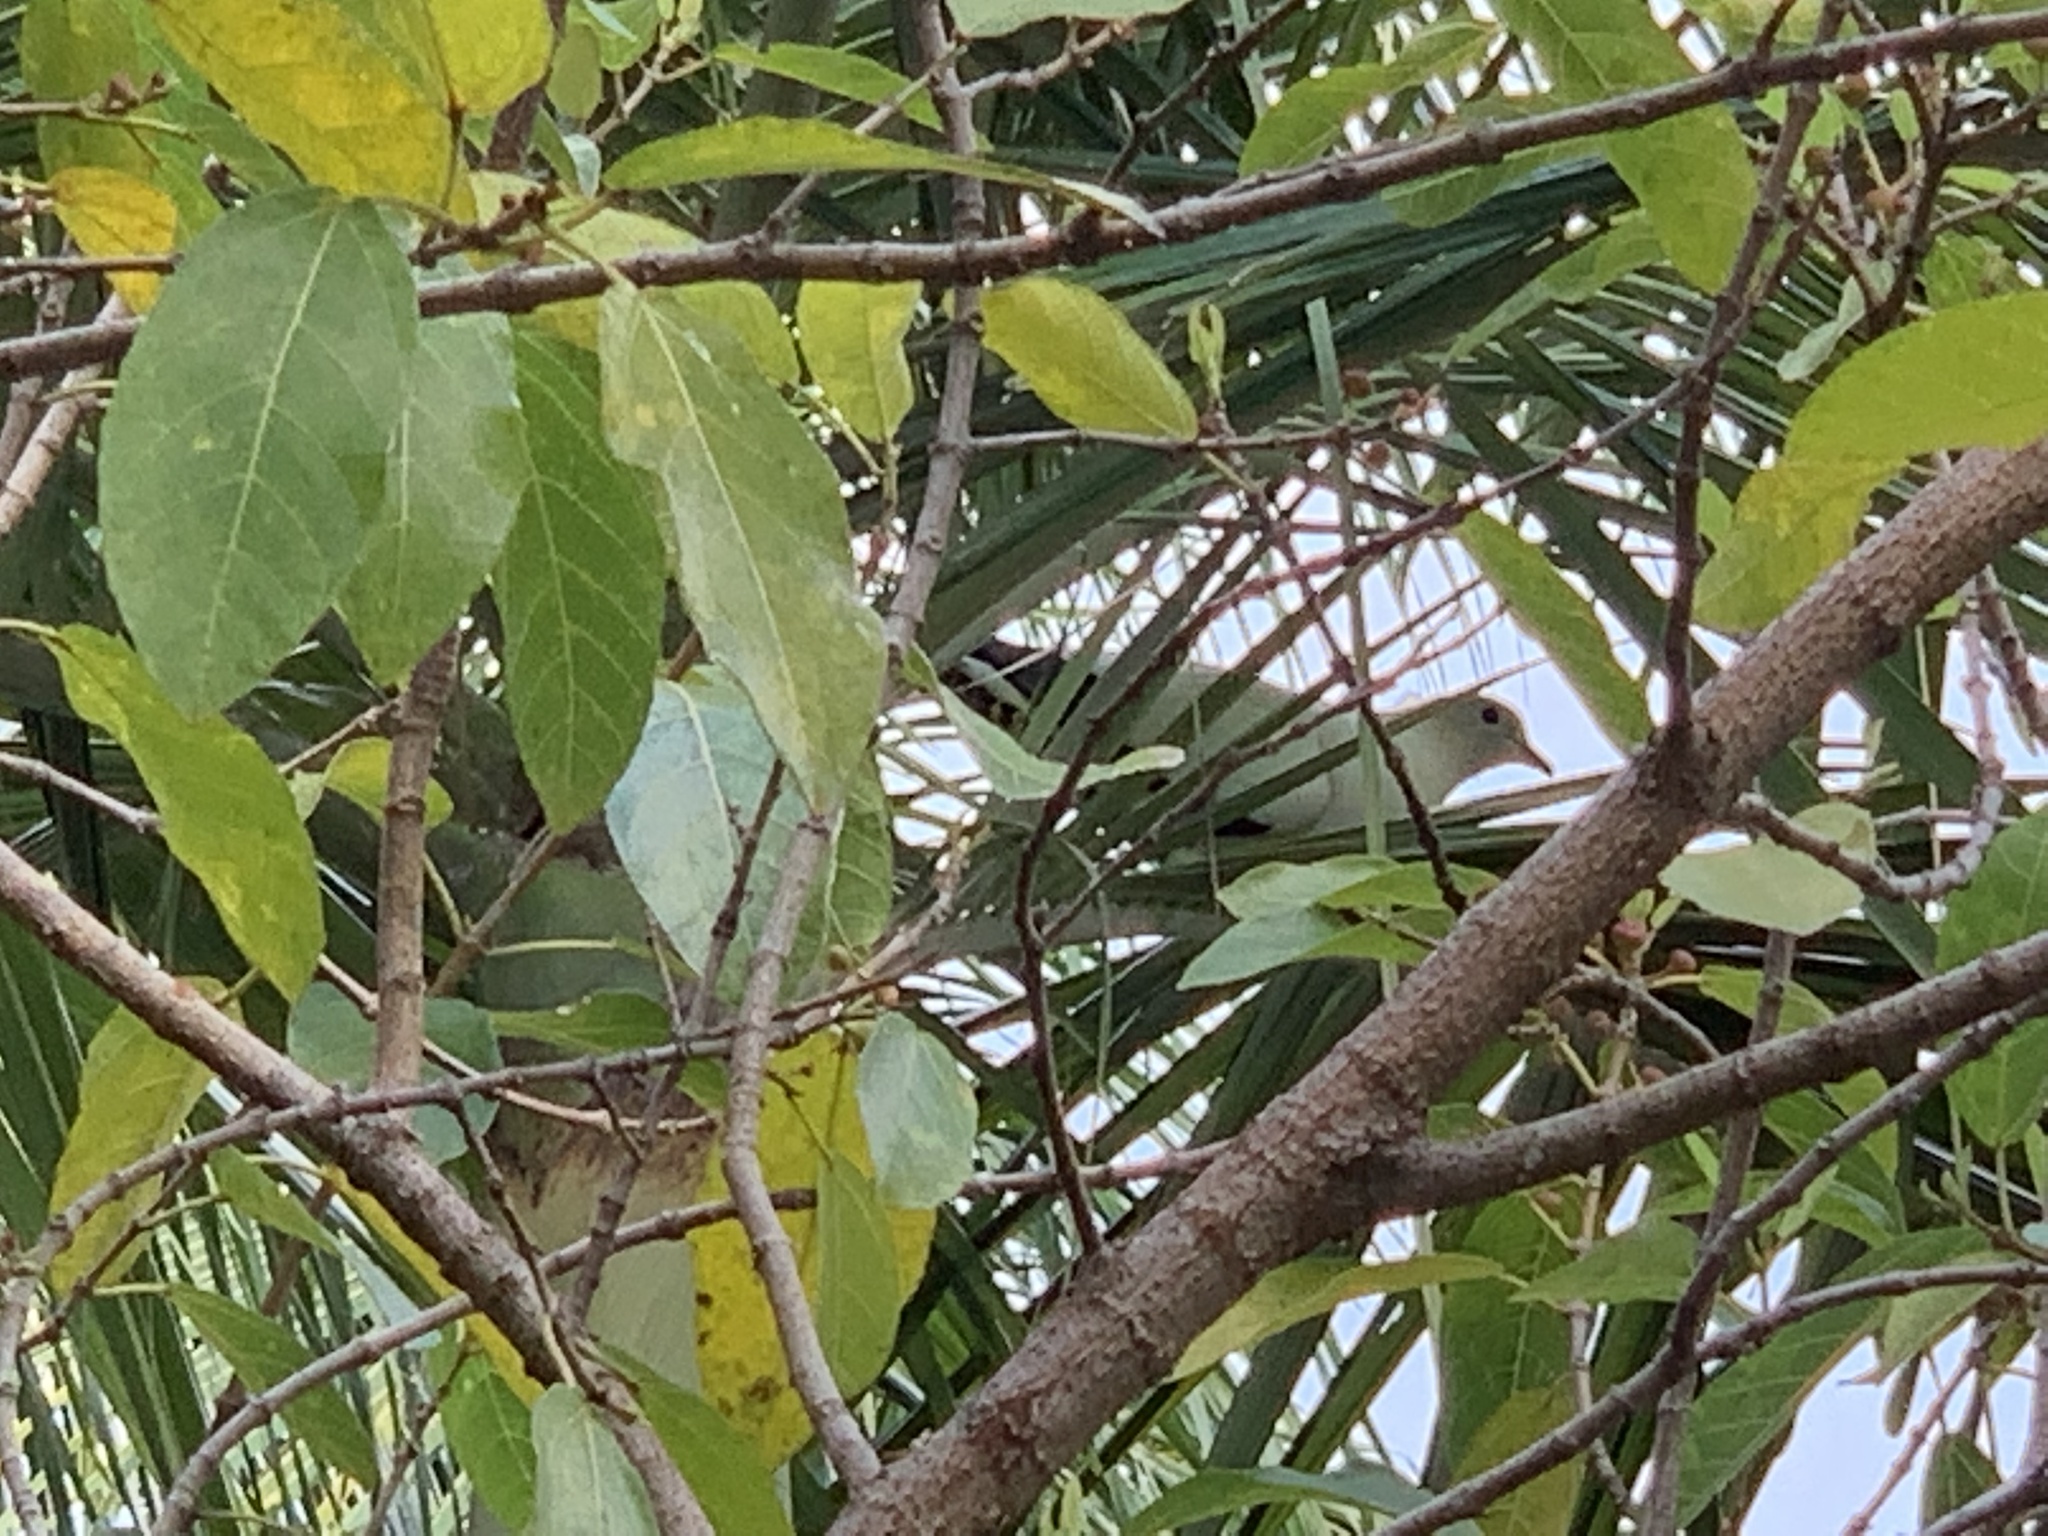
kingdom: Animalia
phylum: Chordata
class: Aves
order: Columbiformes
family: Columbidae
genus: Ducula
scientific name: Ducula spilorrhoa
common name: Torresian imperial pigeon
